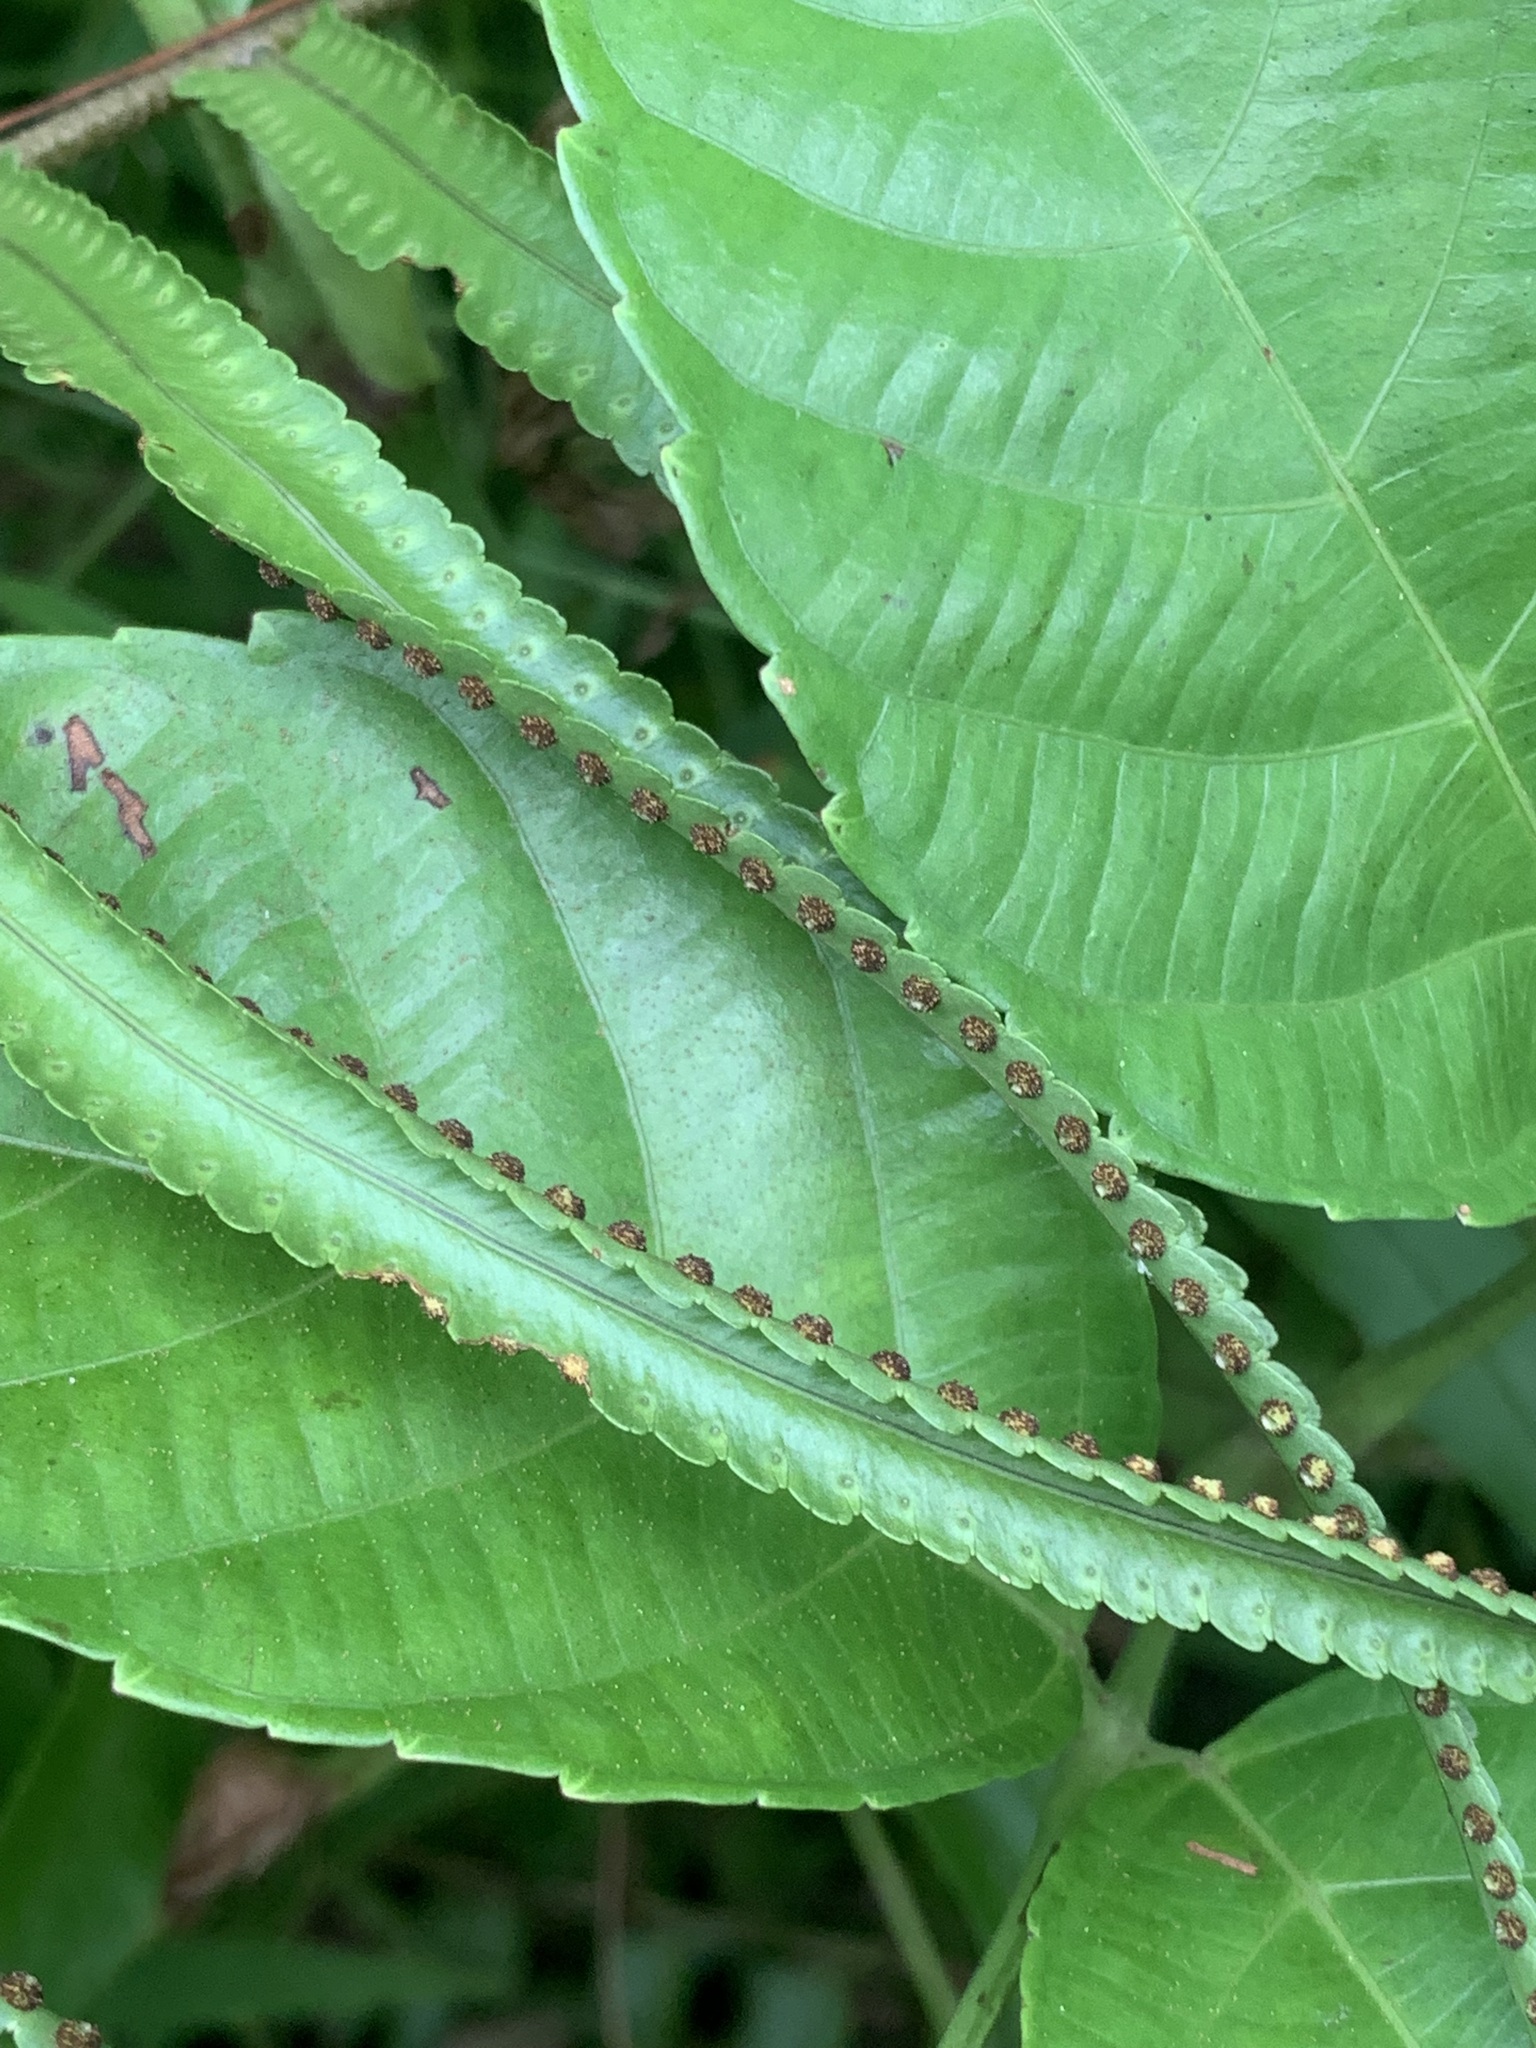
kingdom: Plantae
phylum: Tracheophyta
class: Polypodiopsida
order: Polypodiales
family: Nephrolepidaceae
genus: Nephrolepis
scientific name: Nephrolepis biserrata
